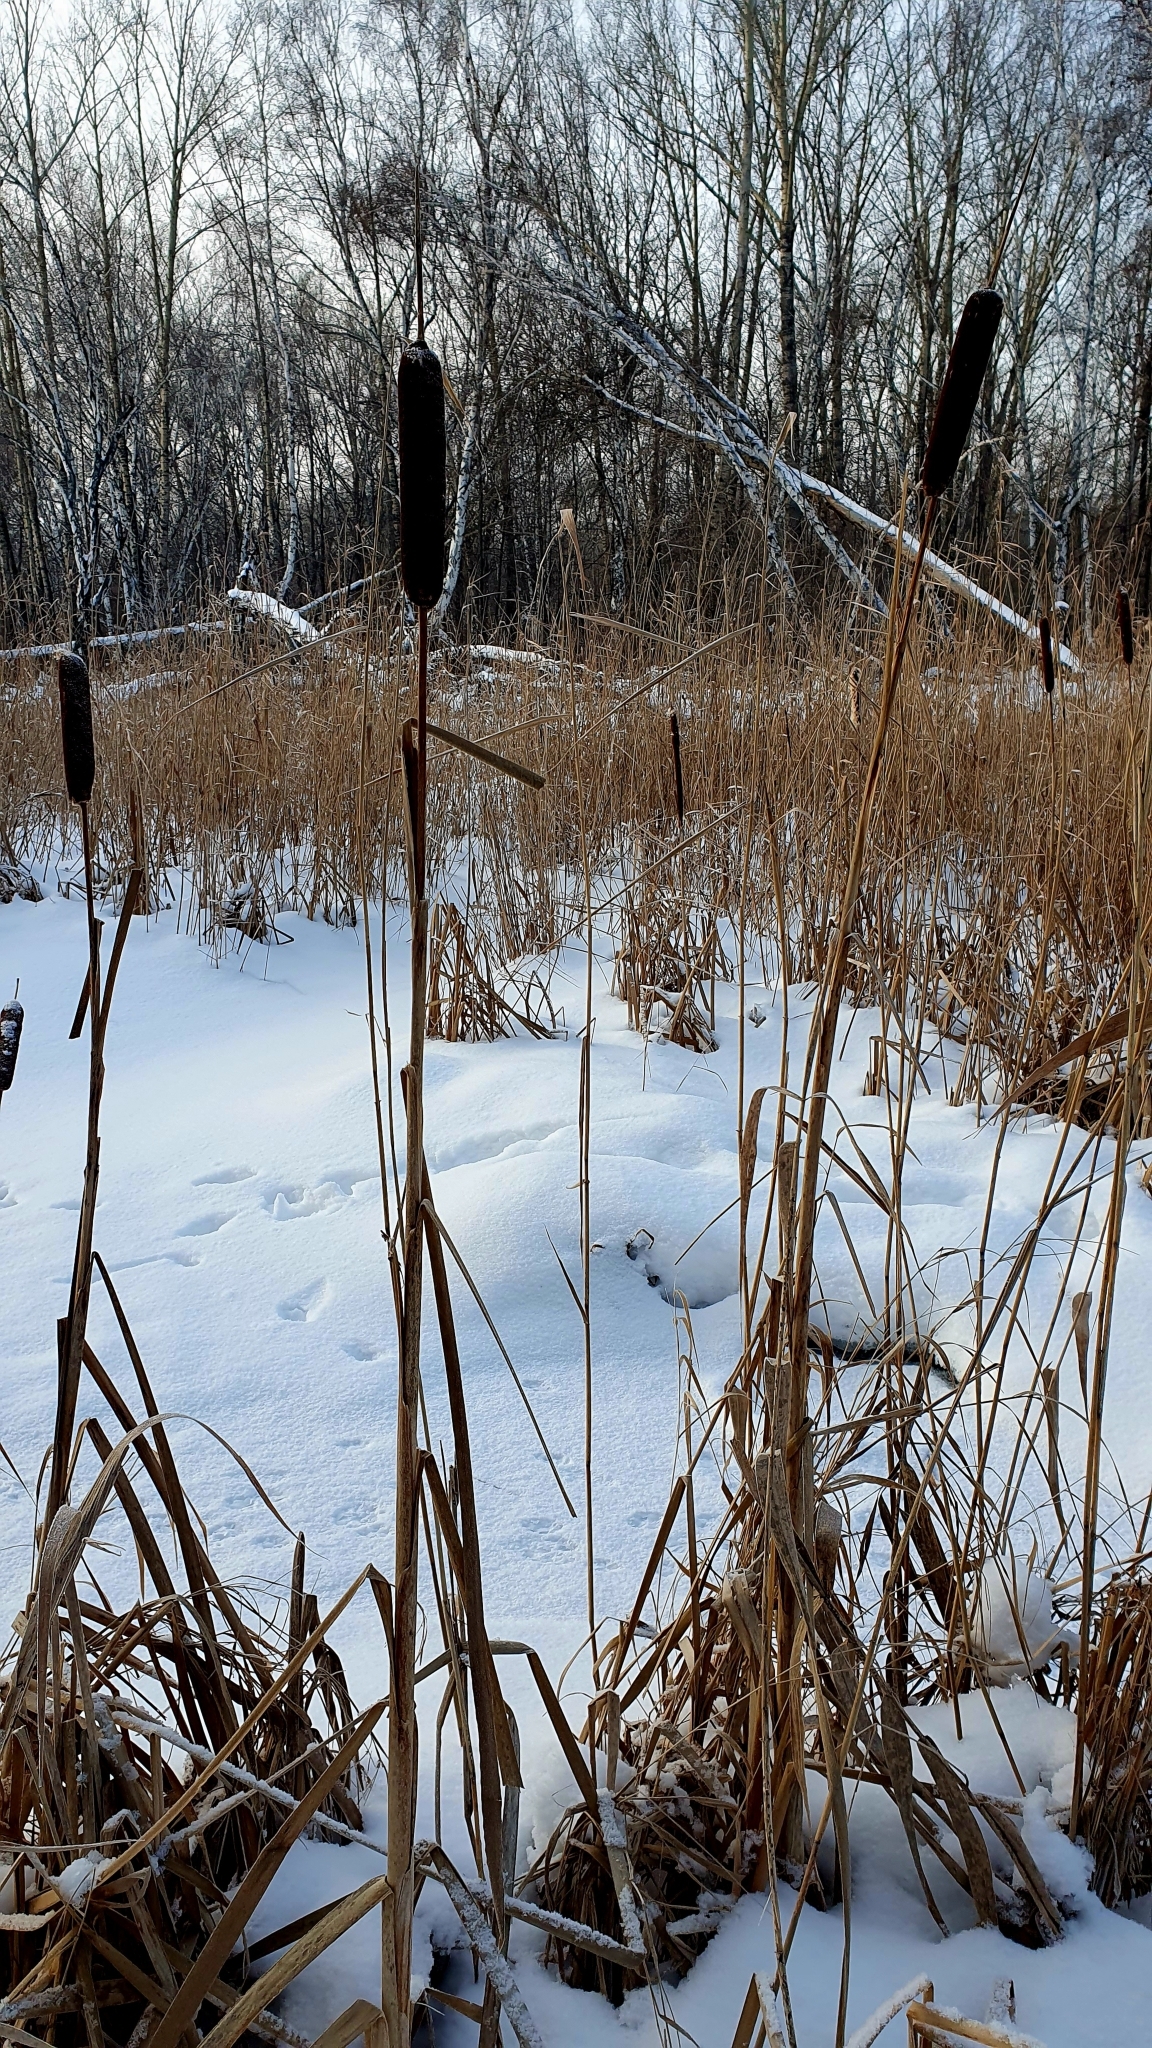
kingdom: Plantae
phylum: Tracheophyta
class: Liliopsida
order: Poales
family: Typhaceae
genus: Typha
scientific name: Typha latifolia
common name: Broadleaf cattail
